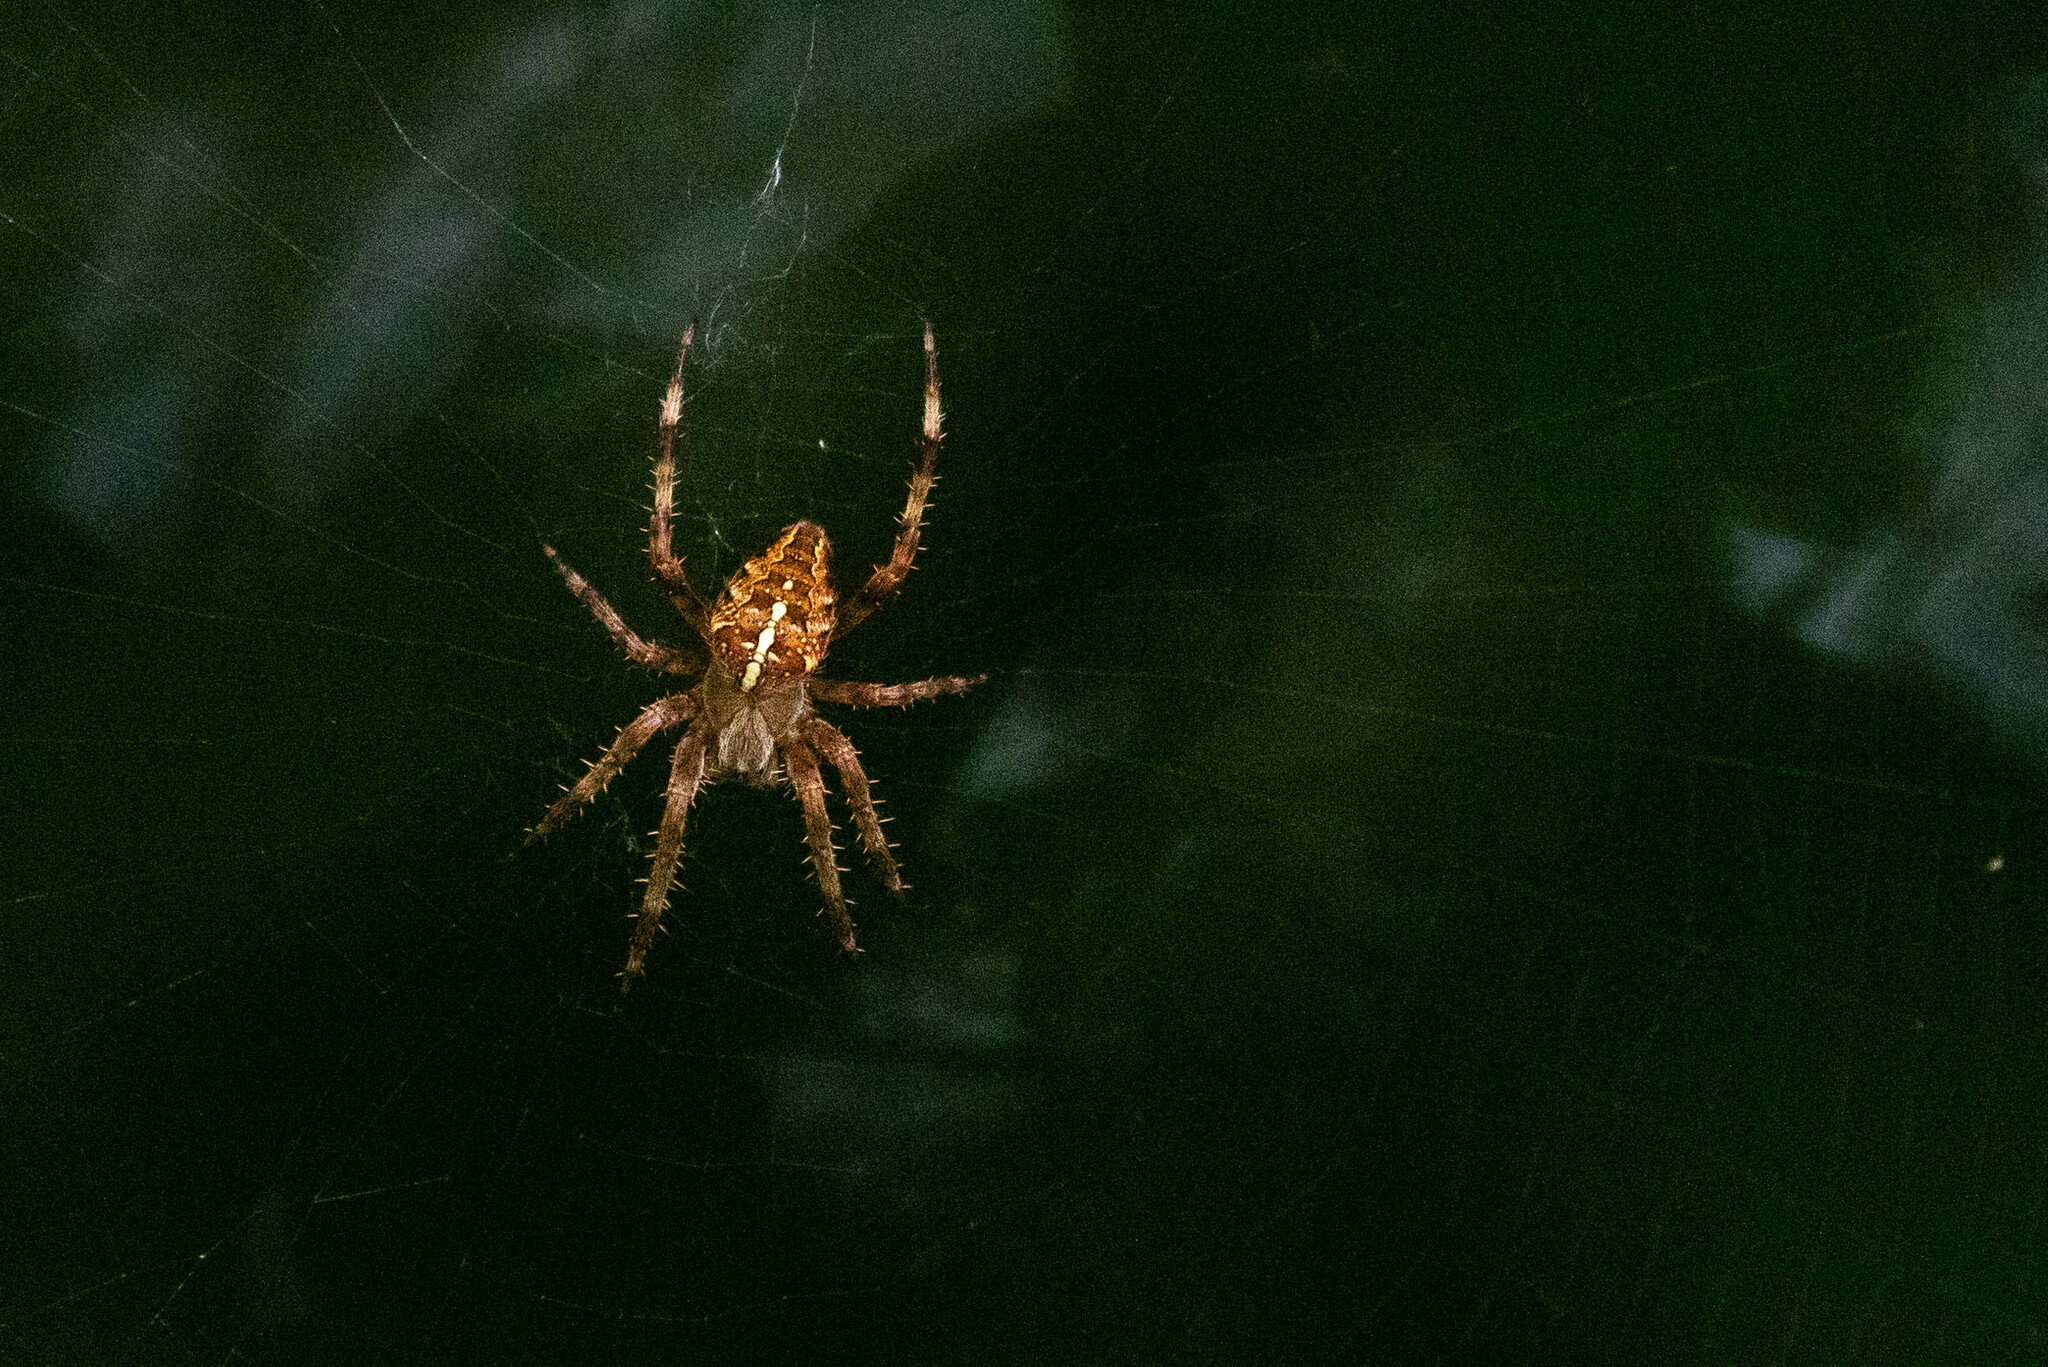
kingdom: Animalia
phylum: Arthropoda
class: Arachnida
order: Araneae
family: Araneidae
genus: Araneus
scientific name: Araneus diadematus
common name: Cross orbweaver
